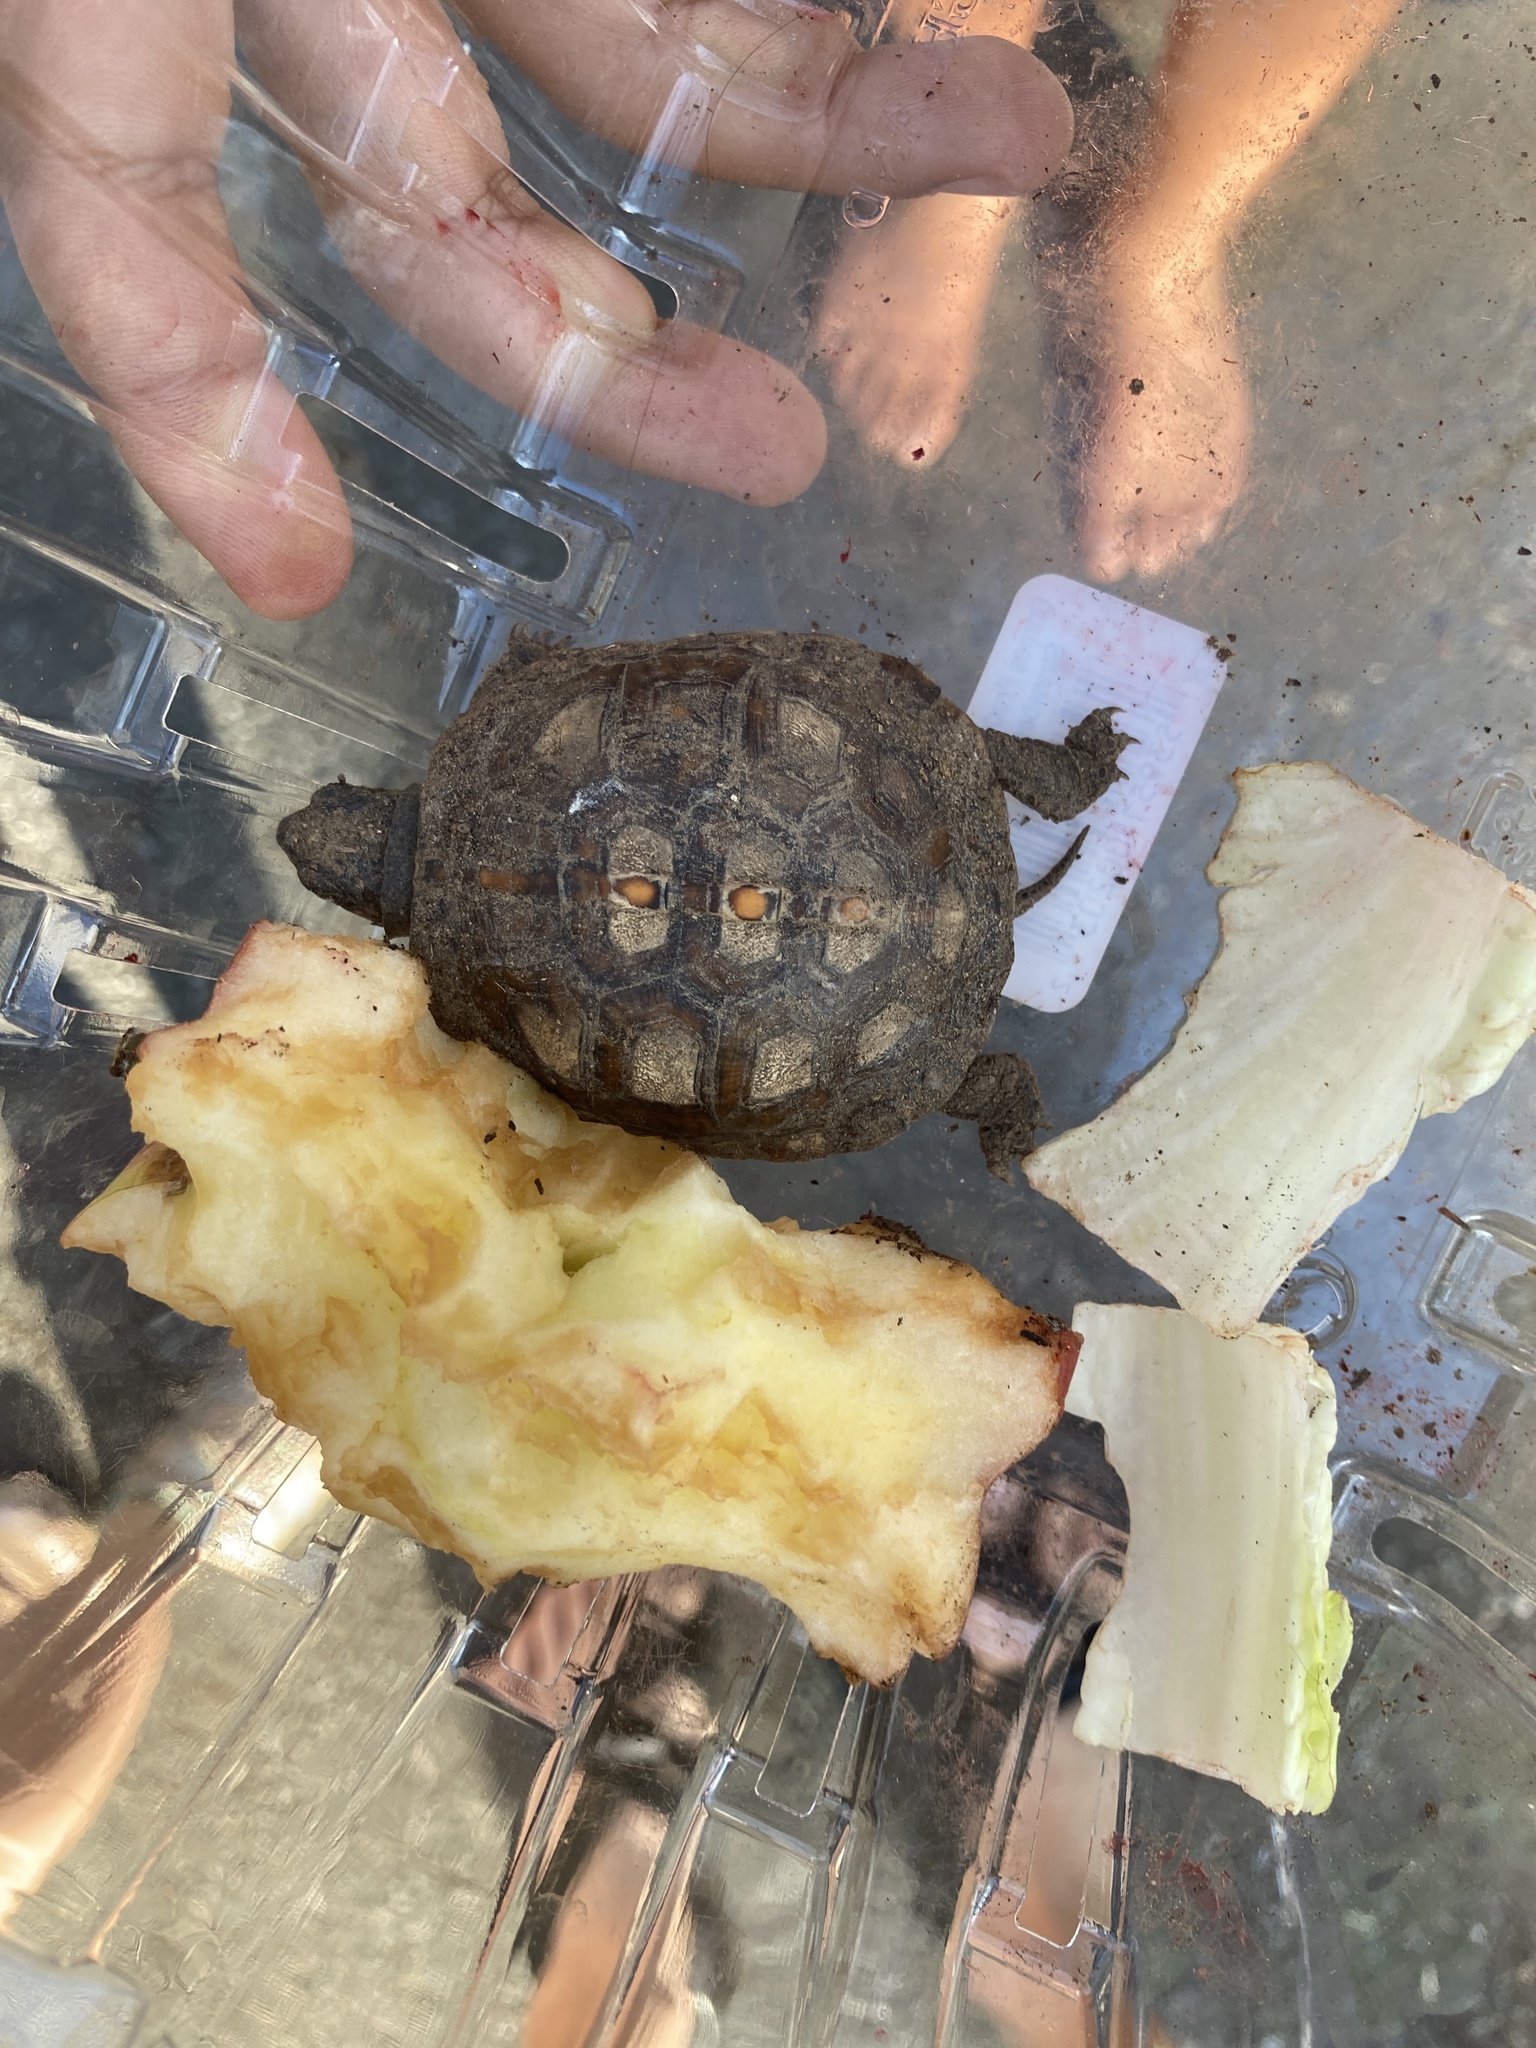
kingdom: Animalia
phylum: Chordata
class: Testudines
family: Emydidae
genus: Terrapene
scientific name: Terrapene carolina
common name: Common box turtle
